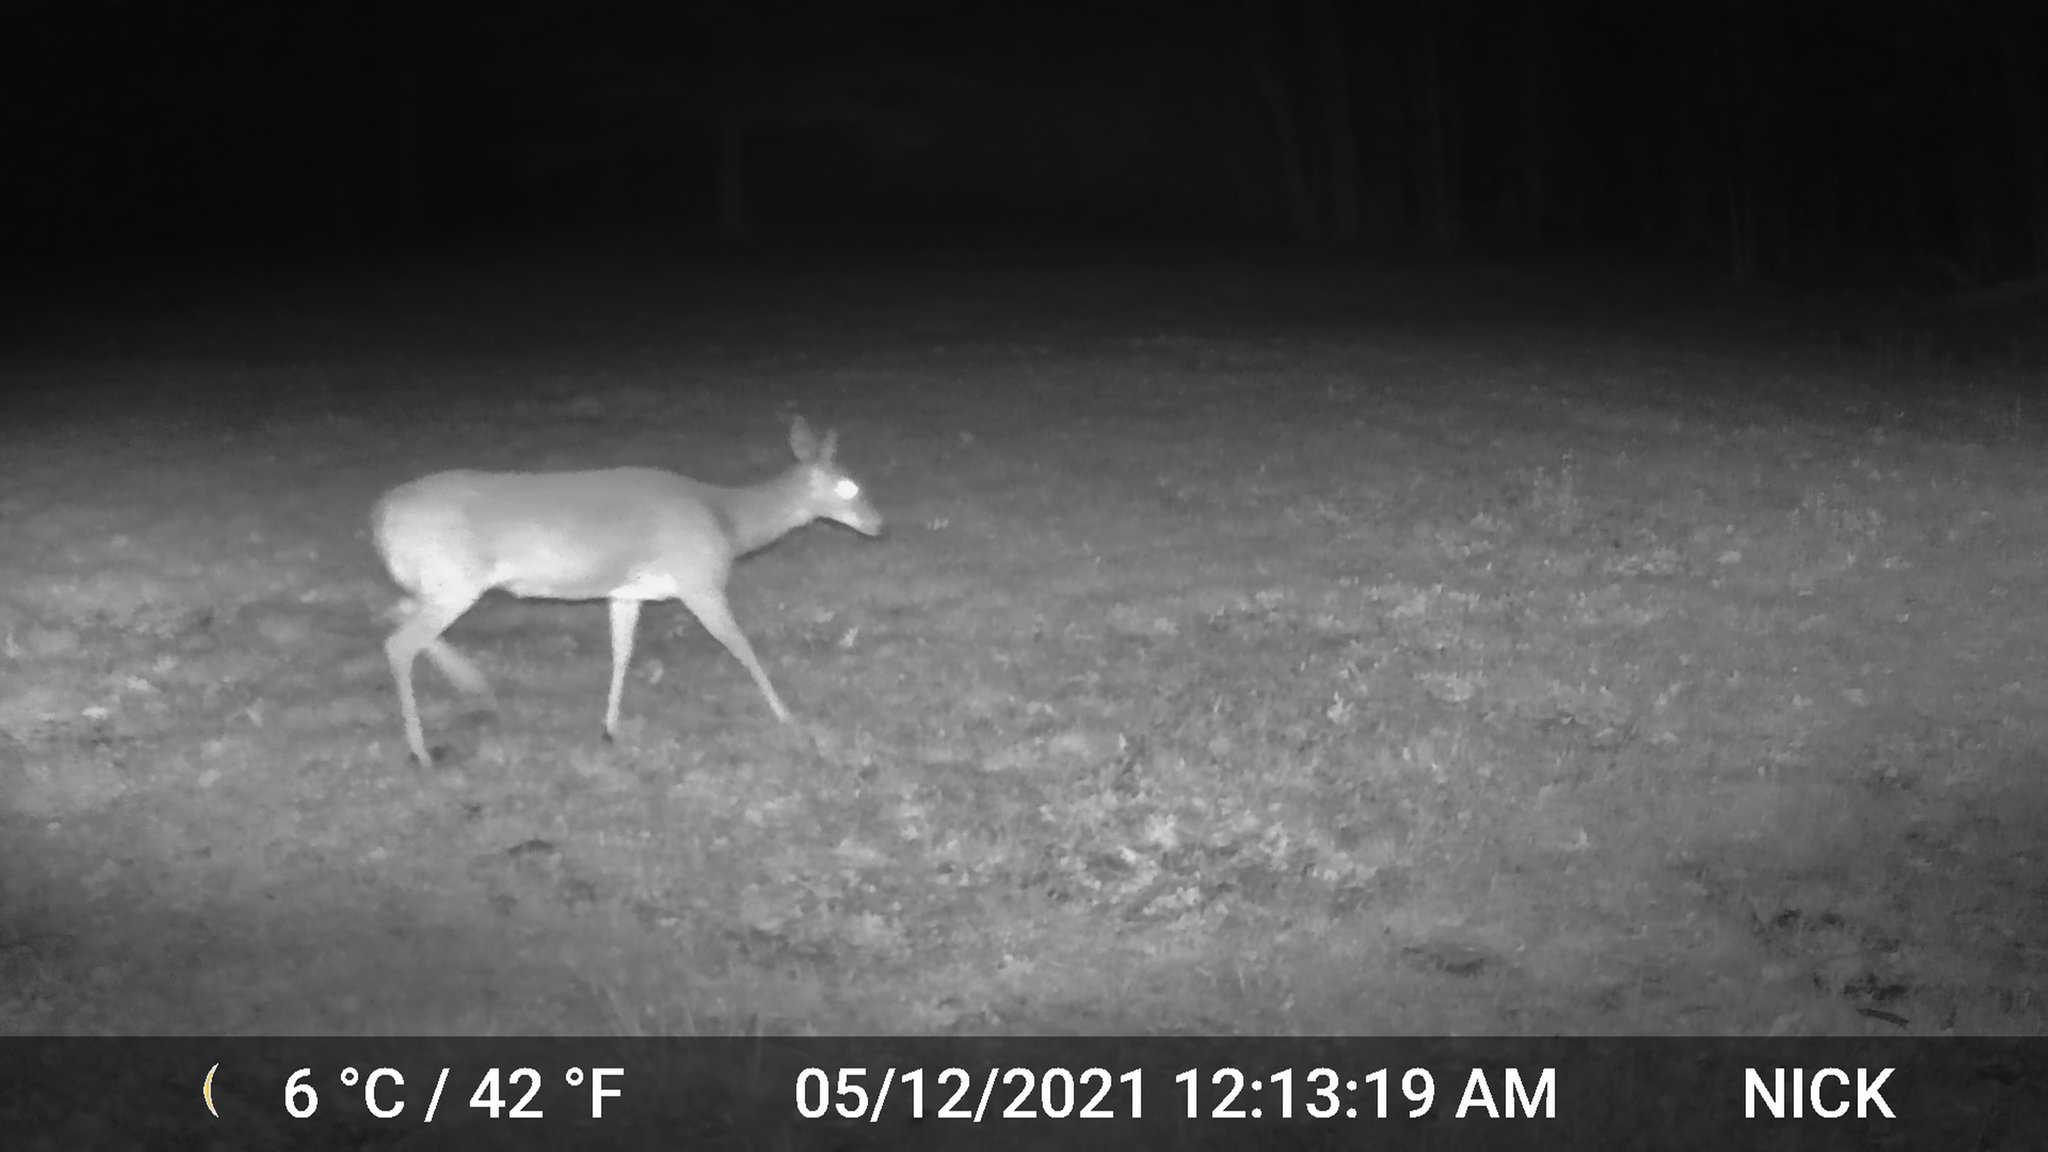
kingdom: Animalia
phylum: Chordata
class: Mammalia
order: Artiodactyla
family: Cervidae
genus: Odocoileus
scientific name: Odocoileus virginianus
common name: White-tailed deer
